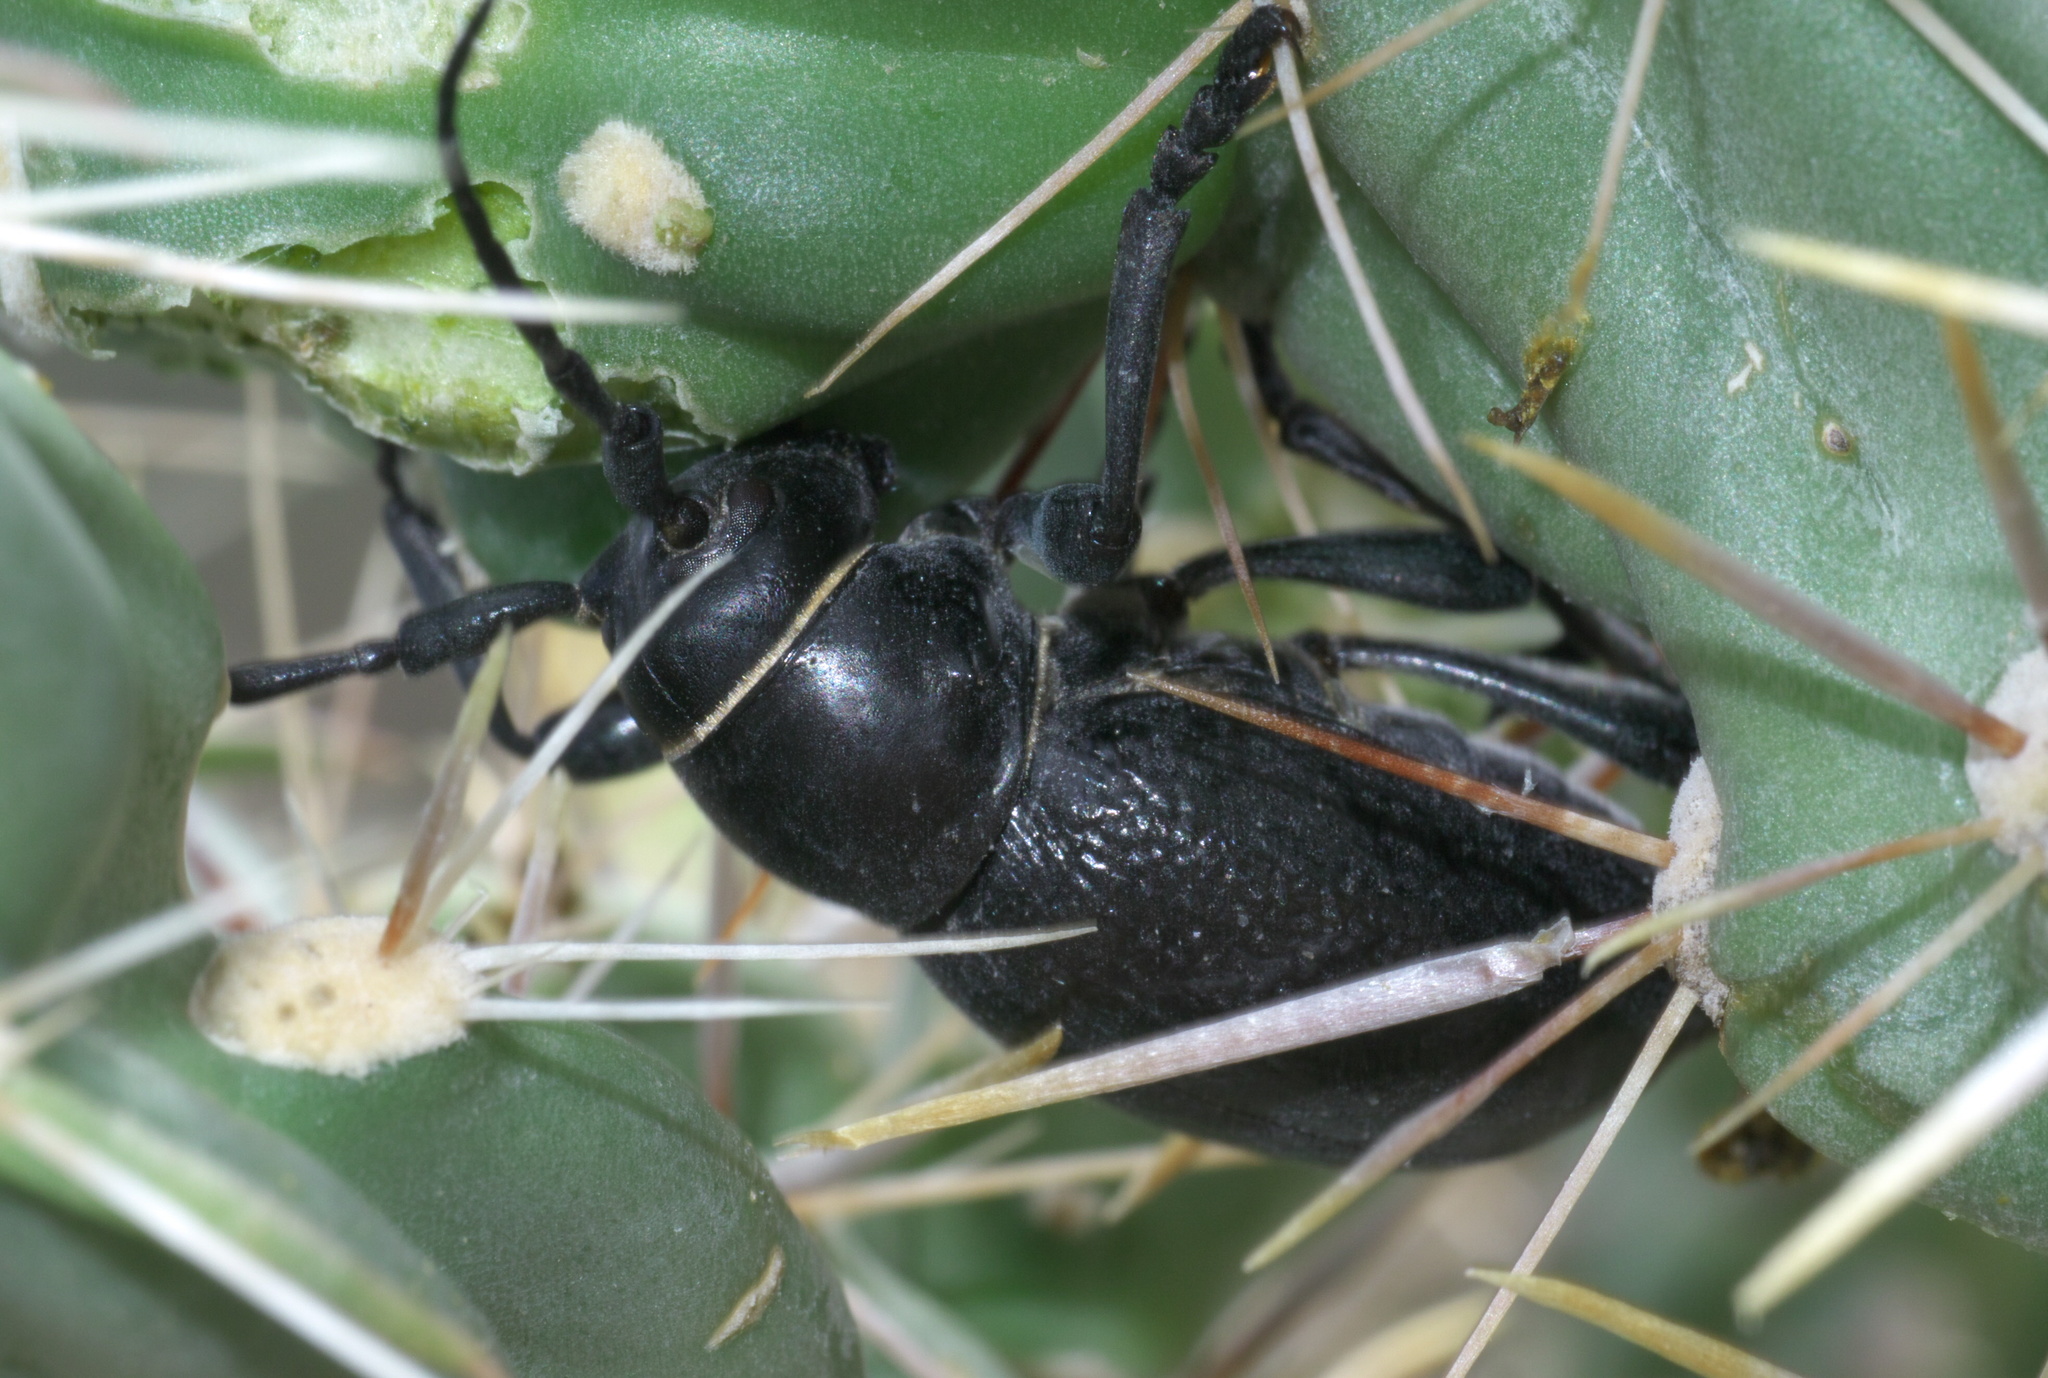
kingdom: Animalia
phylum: Arthropoda
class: Insecta
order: Coleoptera
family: Cerambycidae
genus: Moneilema
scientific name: Moneilema armatum
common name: Long-horned beetle
